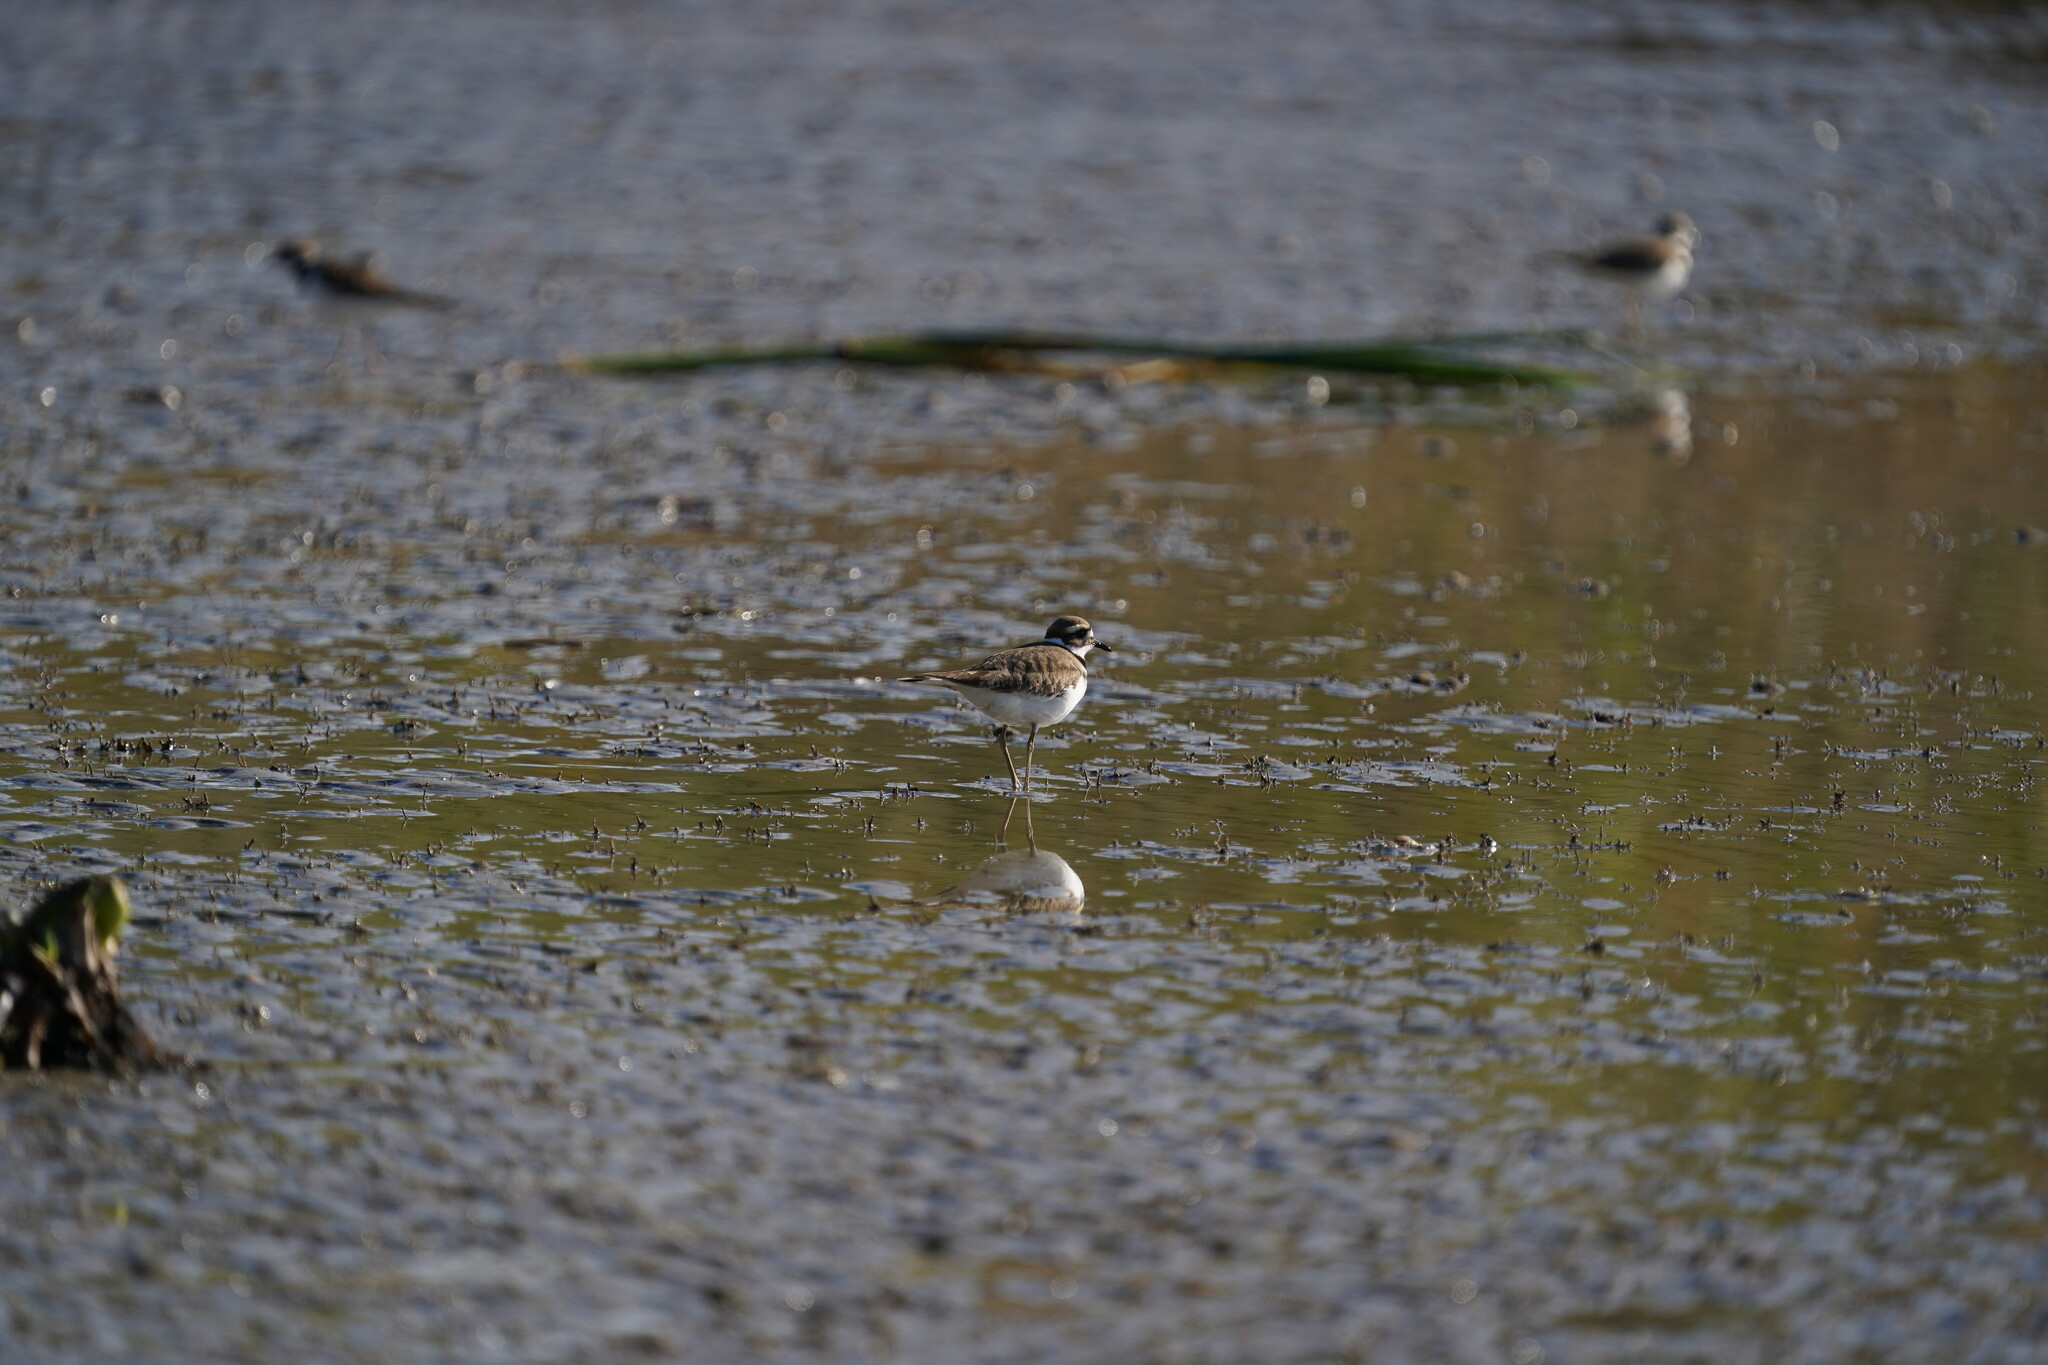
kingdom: Animalia
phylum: Chordata
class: Aves
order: Charadriiformes
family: Charadriidae
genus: Charadrius
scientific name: Charadrius vociferus
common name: Killdeer
